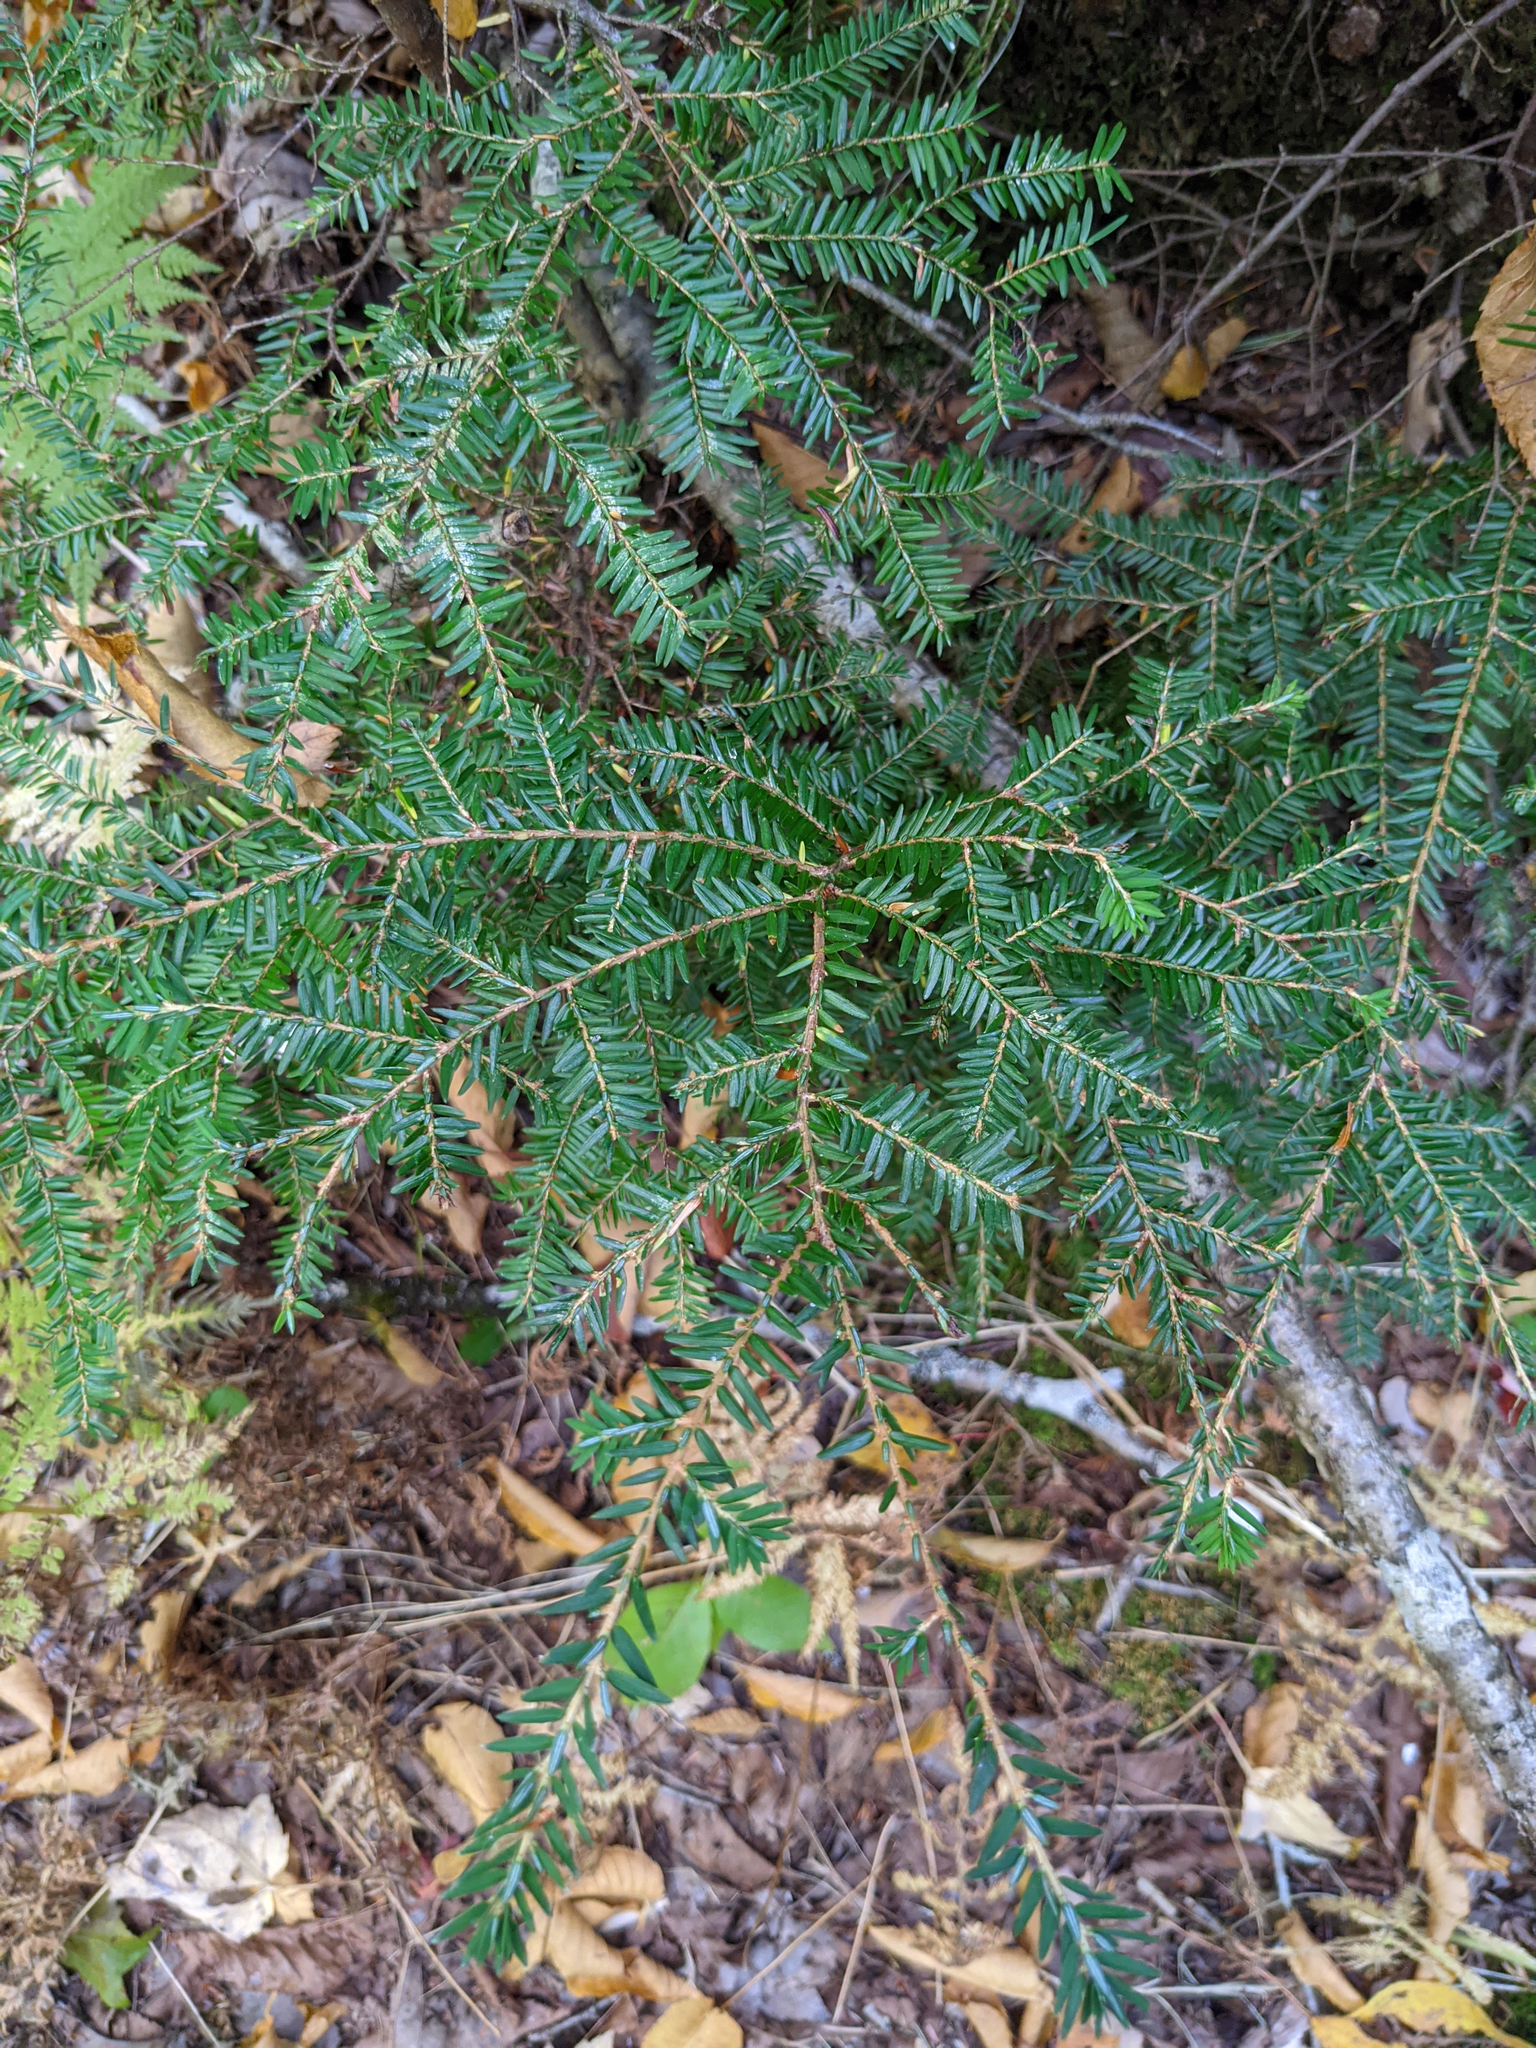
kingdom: Plantae
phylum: Tracheophyta
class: Pinopsida
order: Pinales
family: Pinaceae
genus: Tsuga
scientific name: Tsuga canadensis
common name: Eastern hemlock
